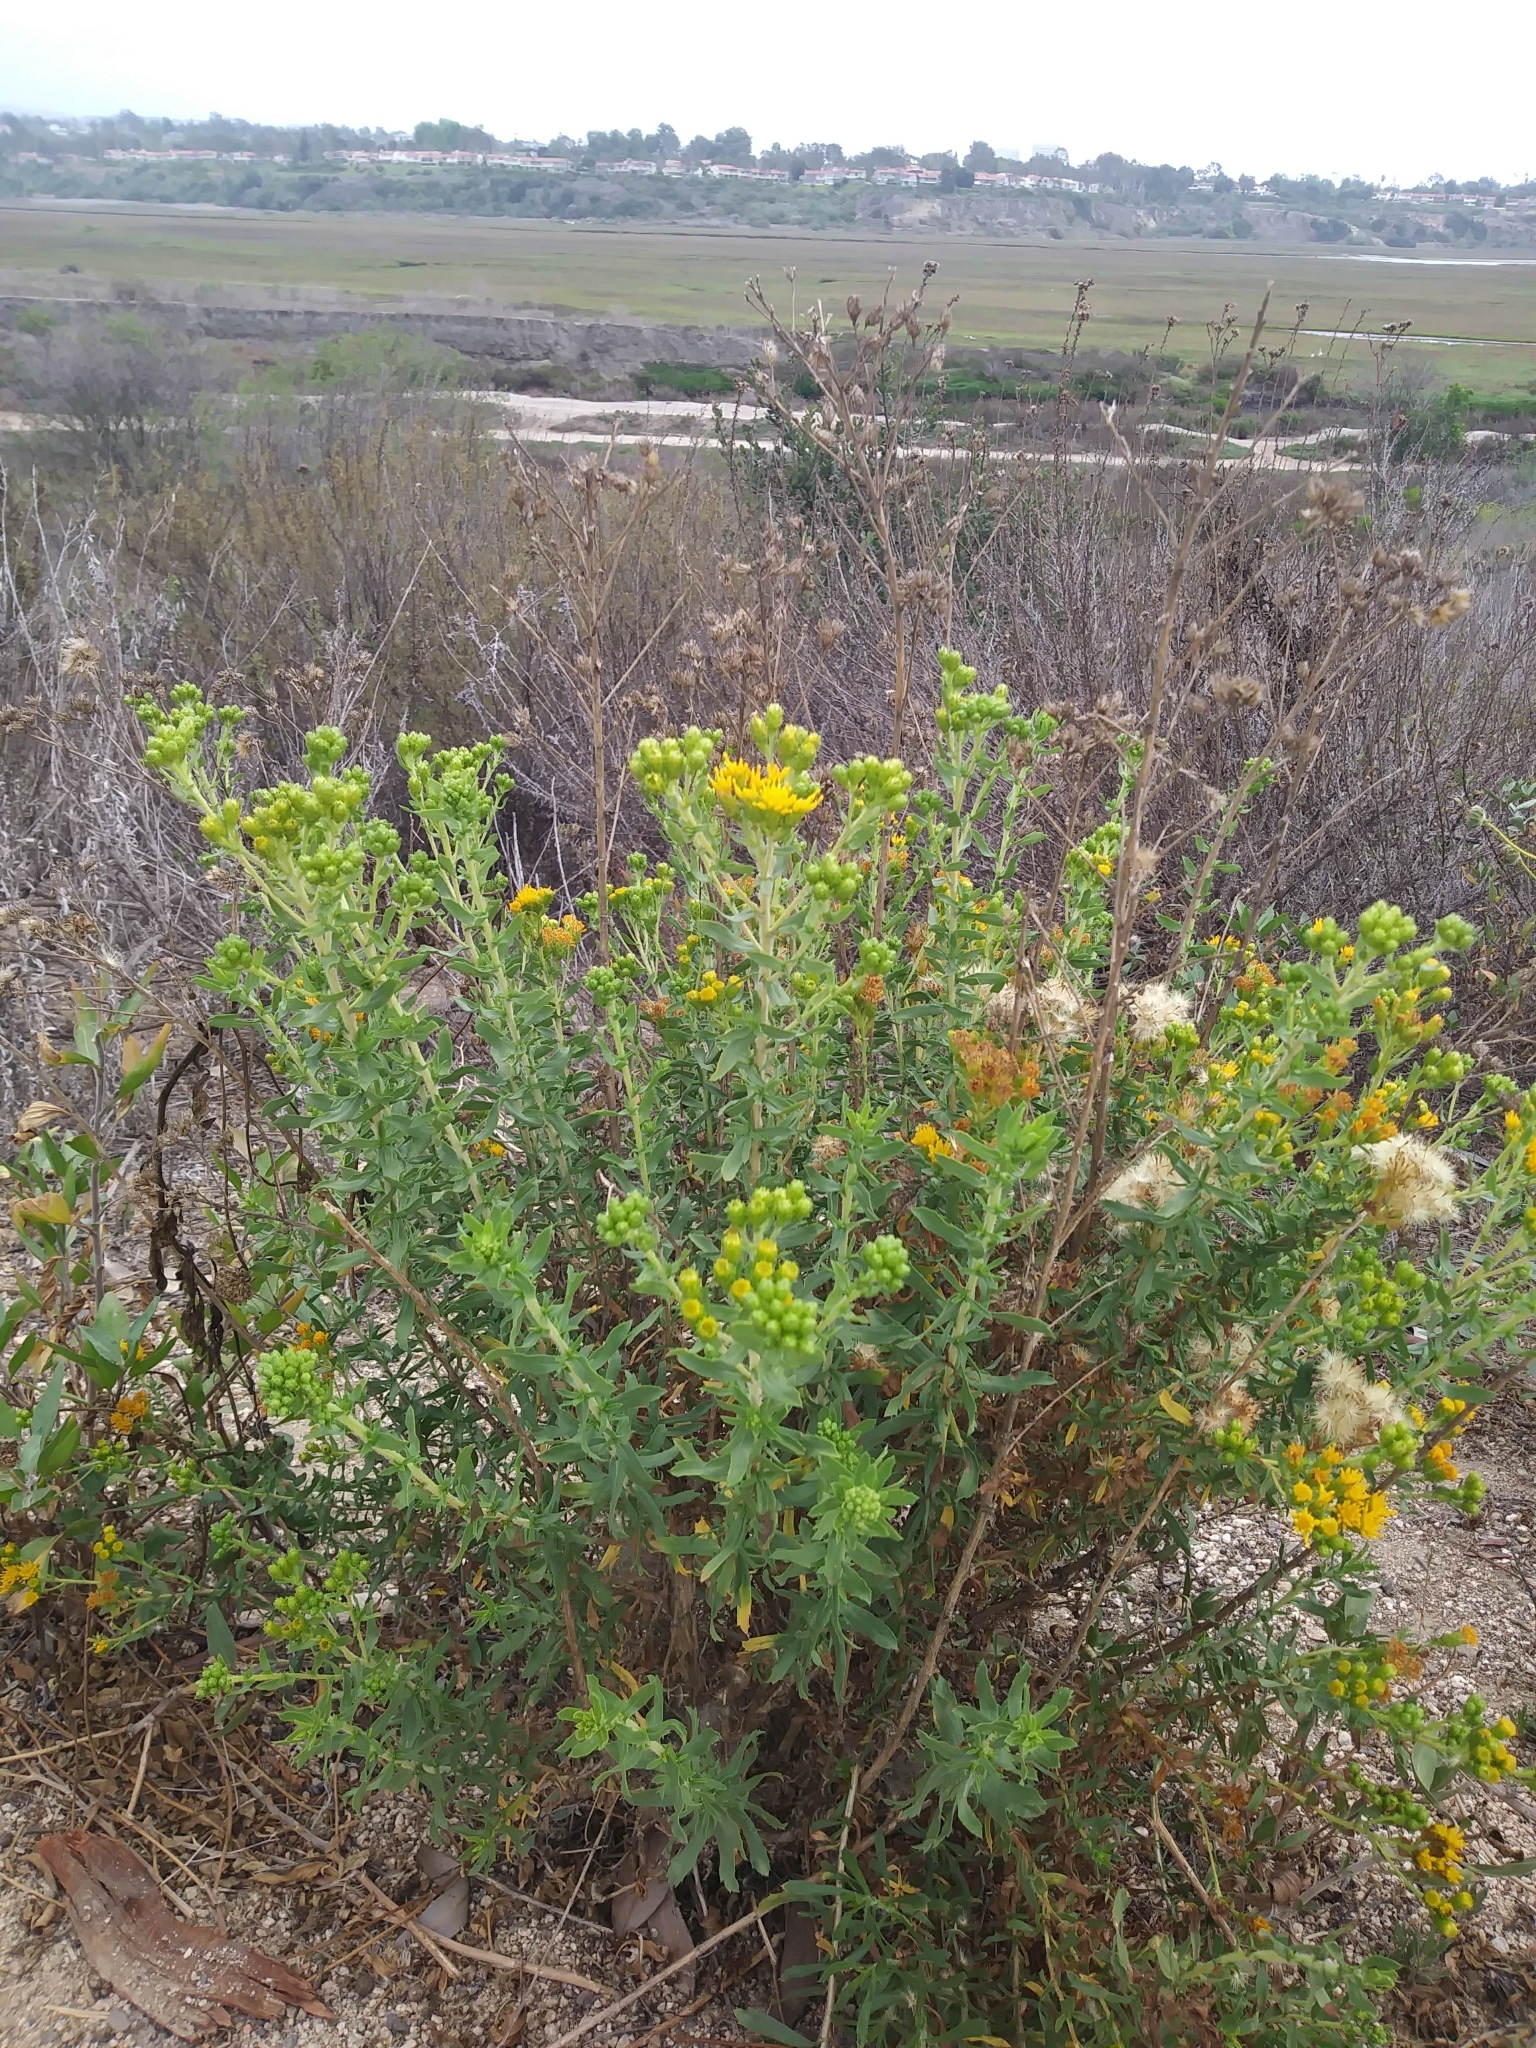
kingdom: Plantae
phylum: Tracheophyta
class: Magnoliopsida
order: Asterales
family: Asteraceae
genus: Isocoma
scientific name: Isocoma menziesii
